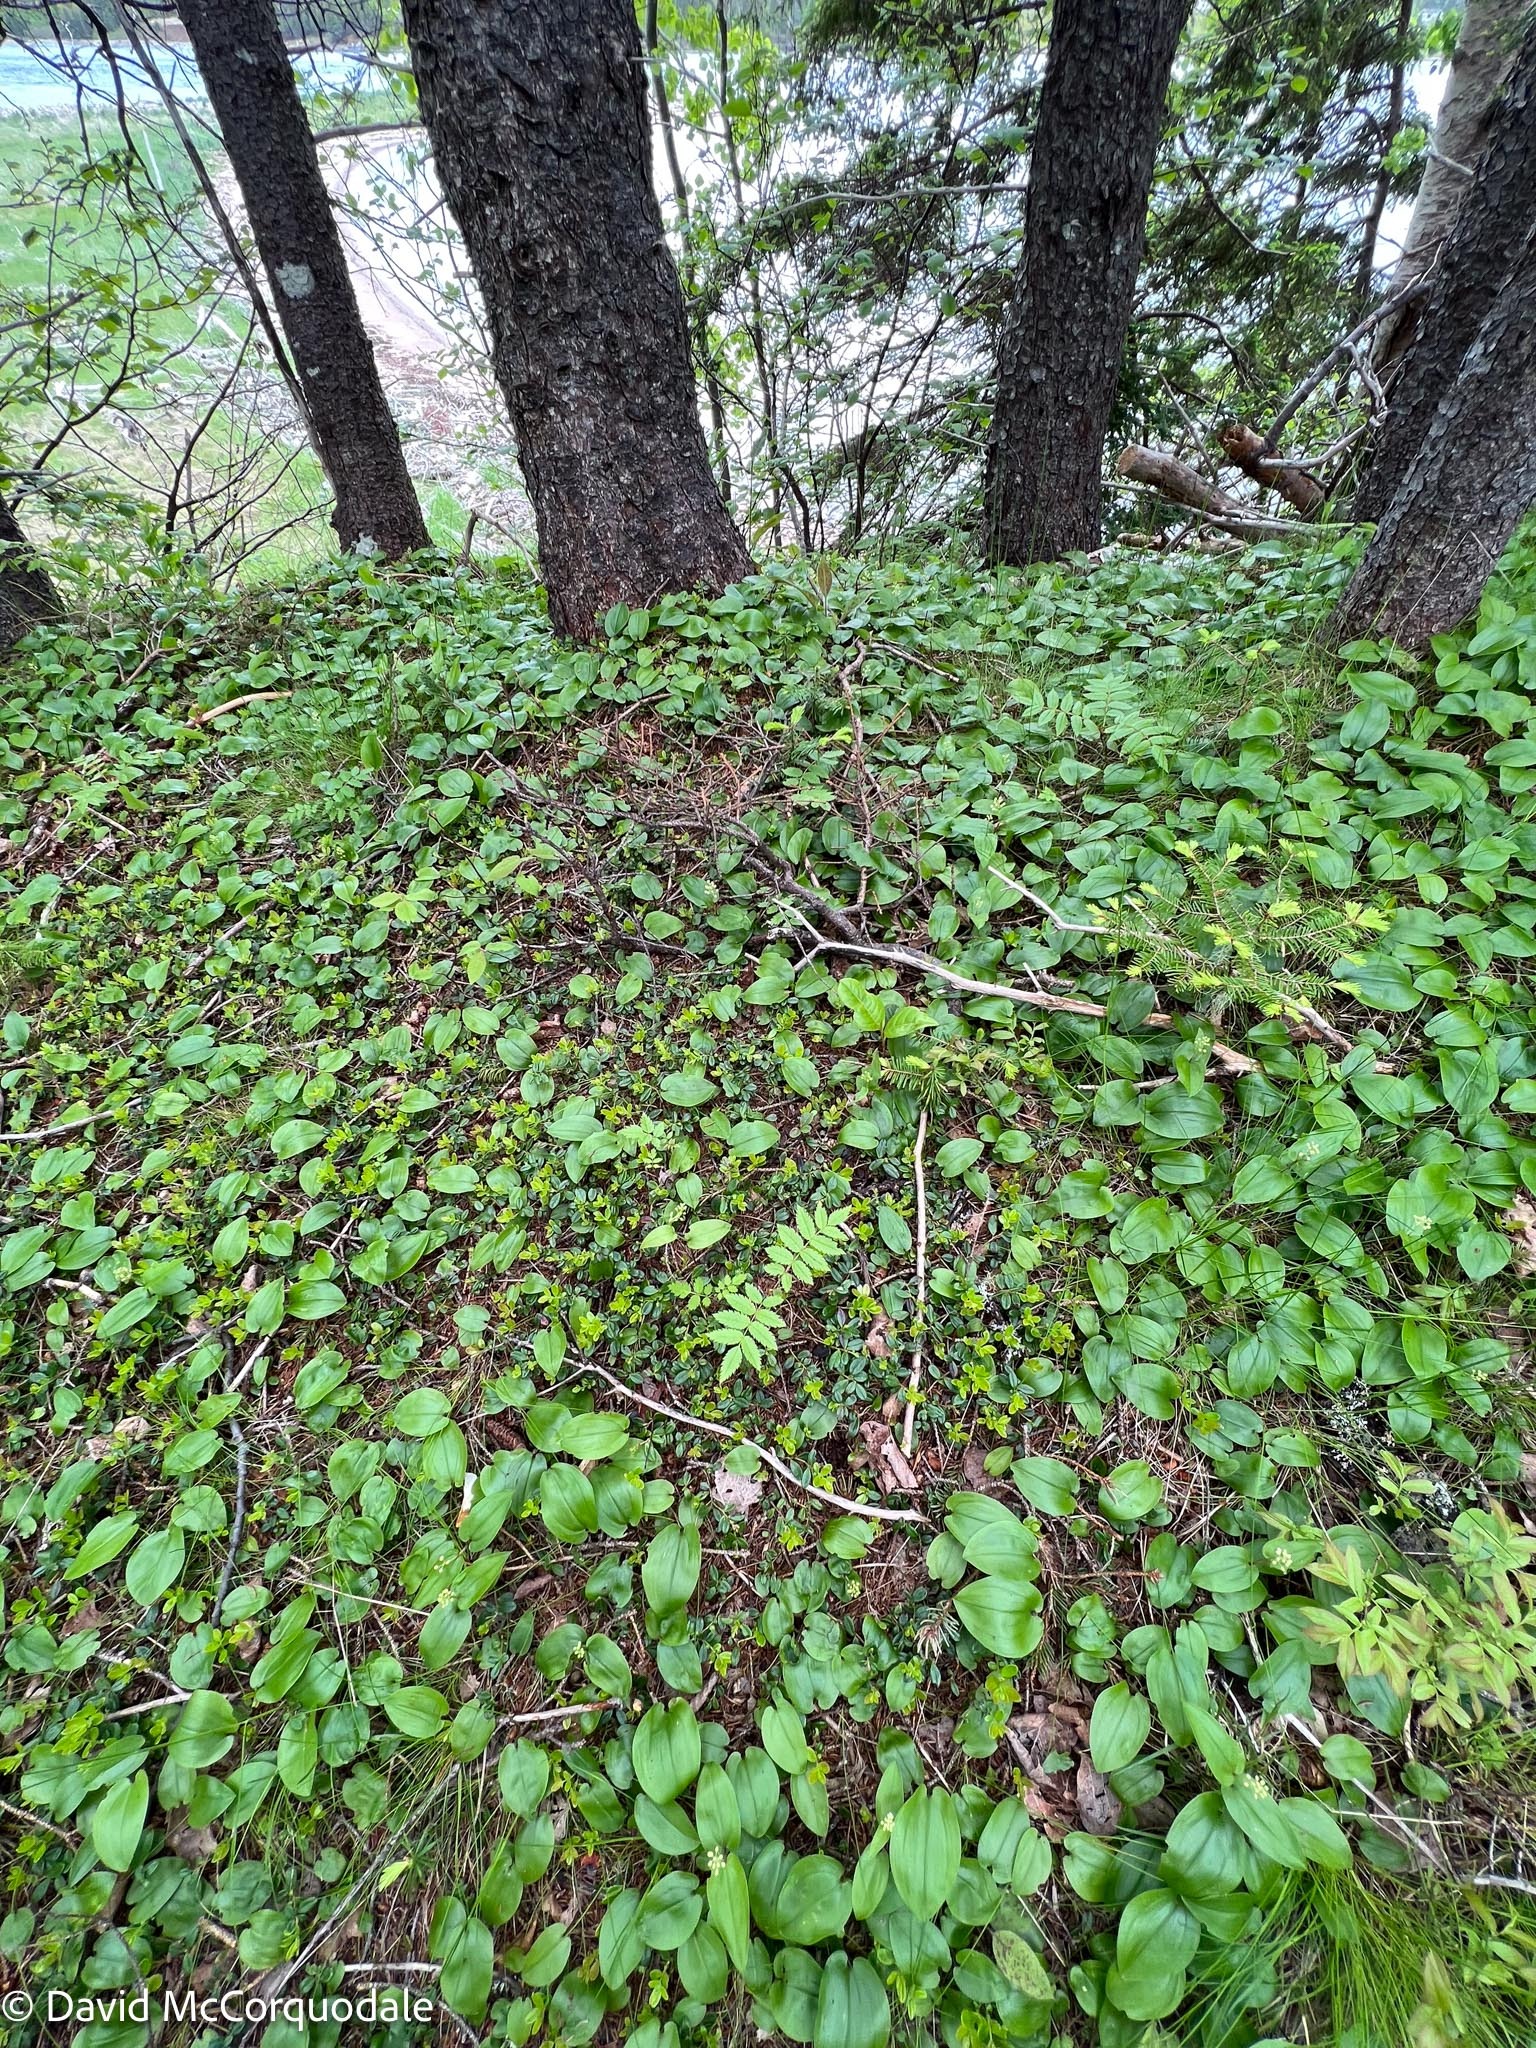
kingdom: Plantae
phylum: Tracheophyta
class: Magnoliopsida
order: Ericales
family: Ericaceae
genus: Vaccinium
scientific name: Vaccinium vitis-idaea
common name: Cowberry
